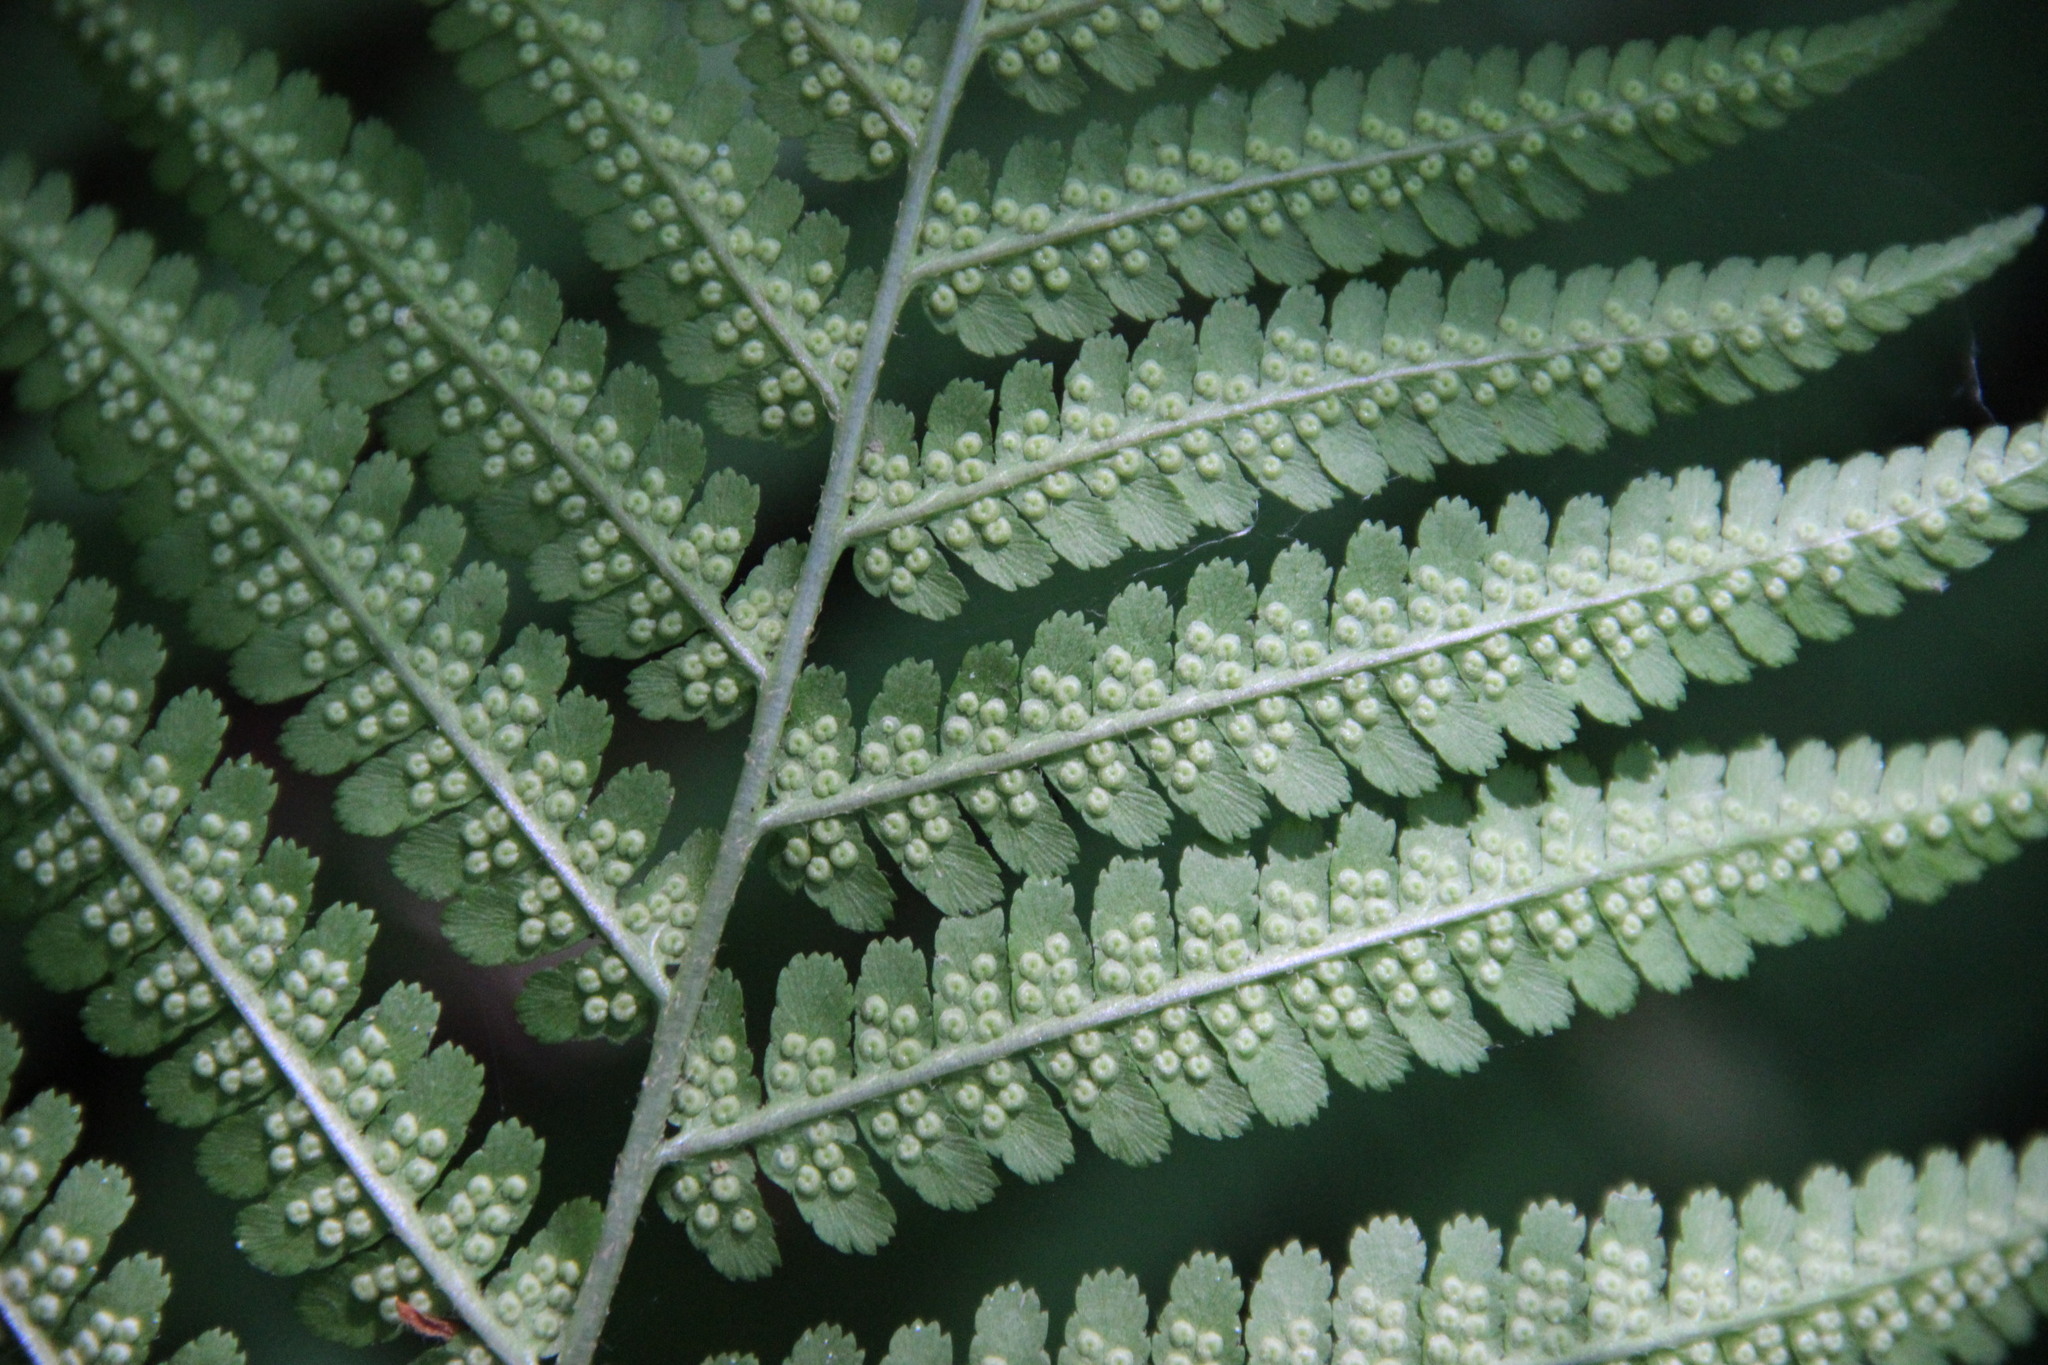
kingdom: Plantae
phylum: Tracheophyta
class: Polypodiopsida
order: Polypodiales
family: Dryopteridaceae
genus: Dryopteris
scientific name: Dryopteris filix-mas
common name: Male fern
